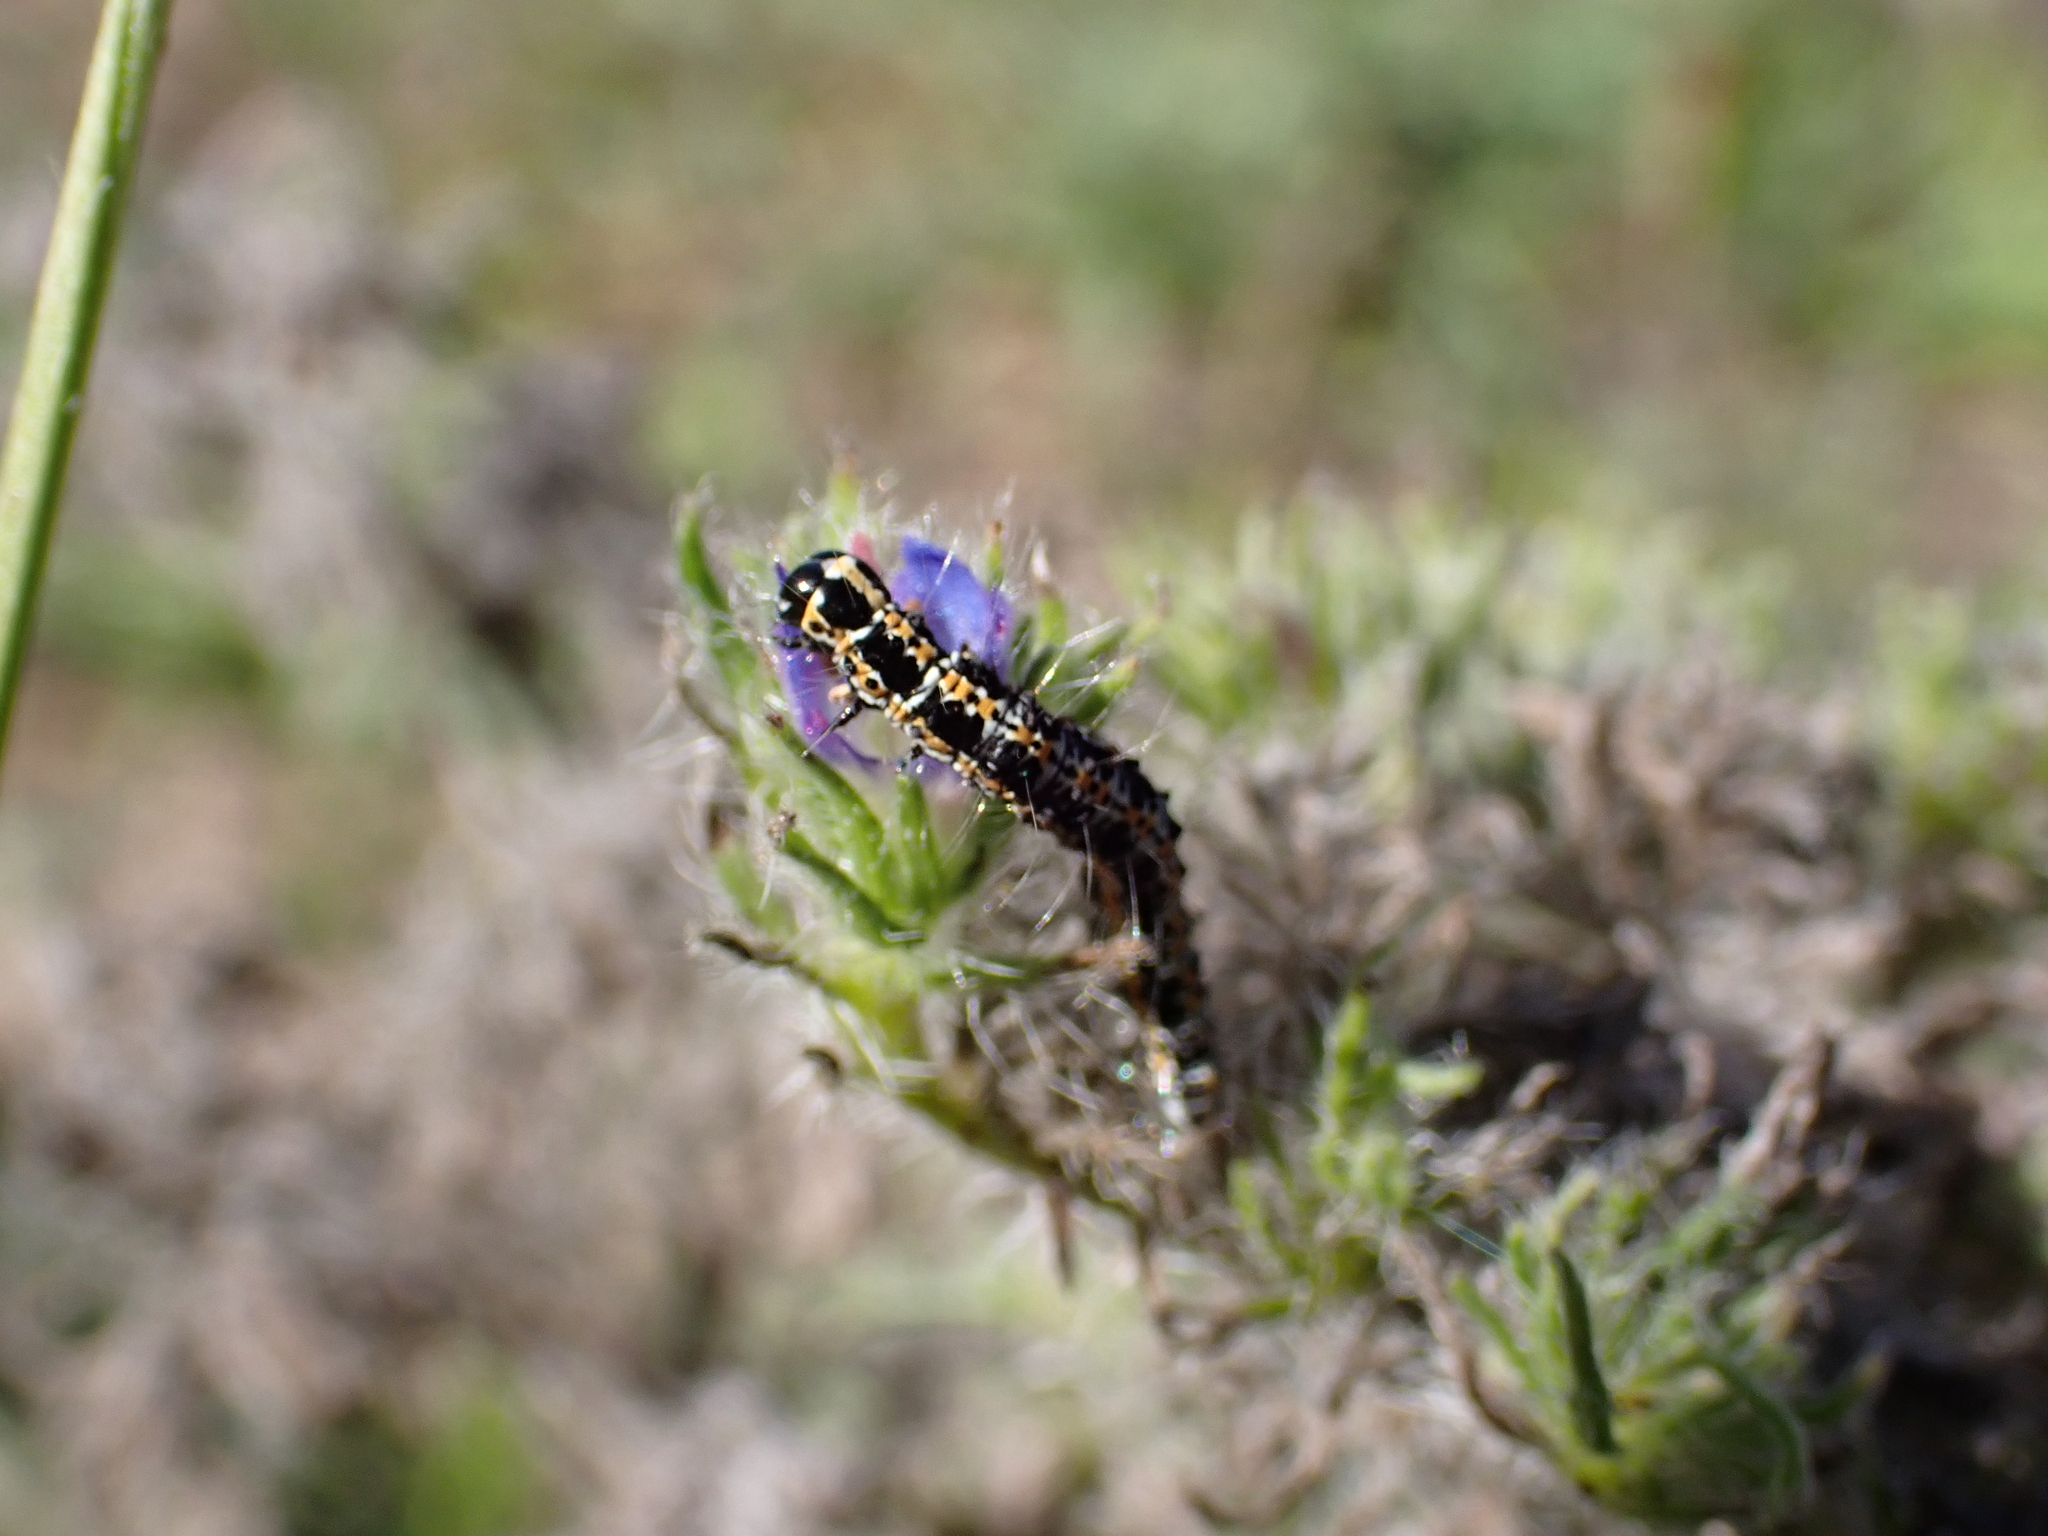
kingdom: Animalia
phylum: Arthropoda
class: Insecta
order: Lepidoptera
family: Ethmiidae
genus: Ethmia
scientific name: Ethmia bipunctella
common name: Bordered ermel
